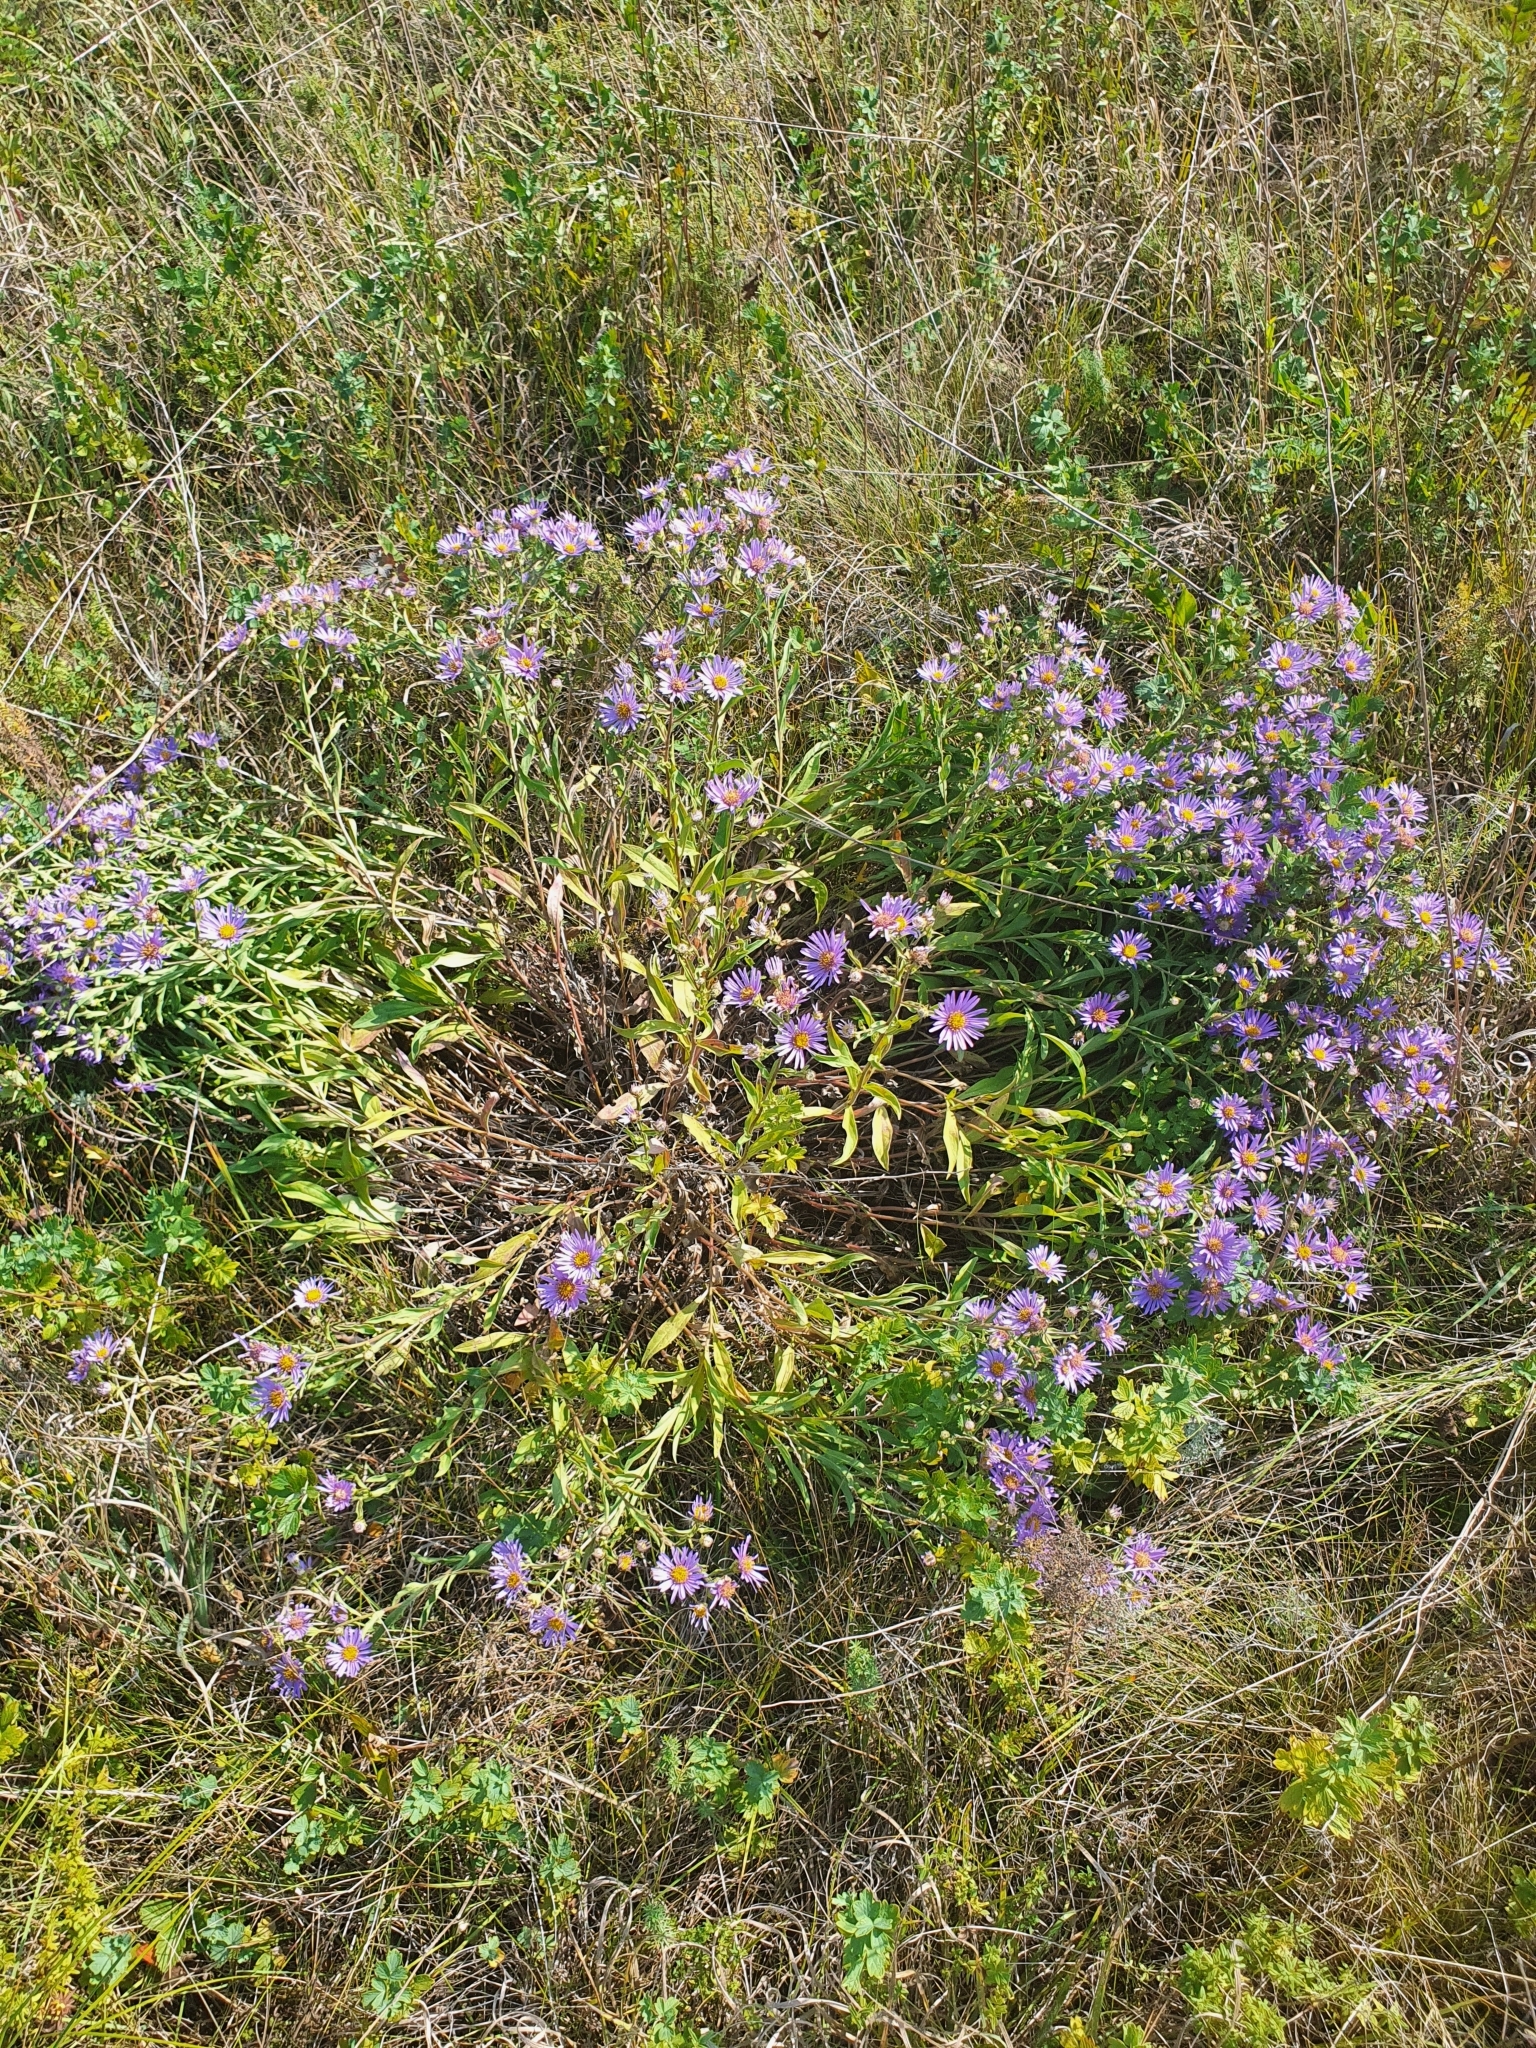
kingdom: Plantae
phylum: Tracheophyta
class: Magnoliopsida
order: Asterales
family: Asteraceae
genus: Aster
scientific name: Aster amellus
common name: European michaelmas daisy
